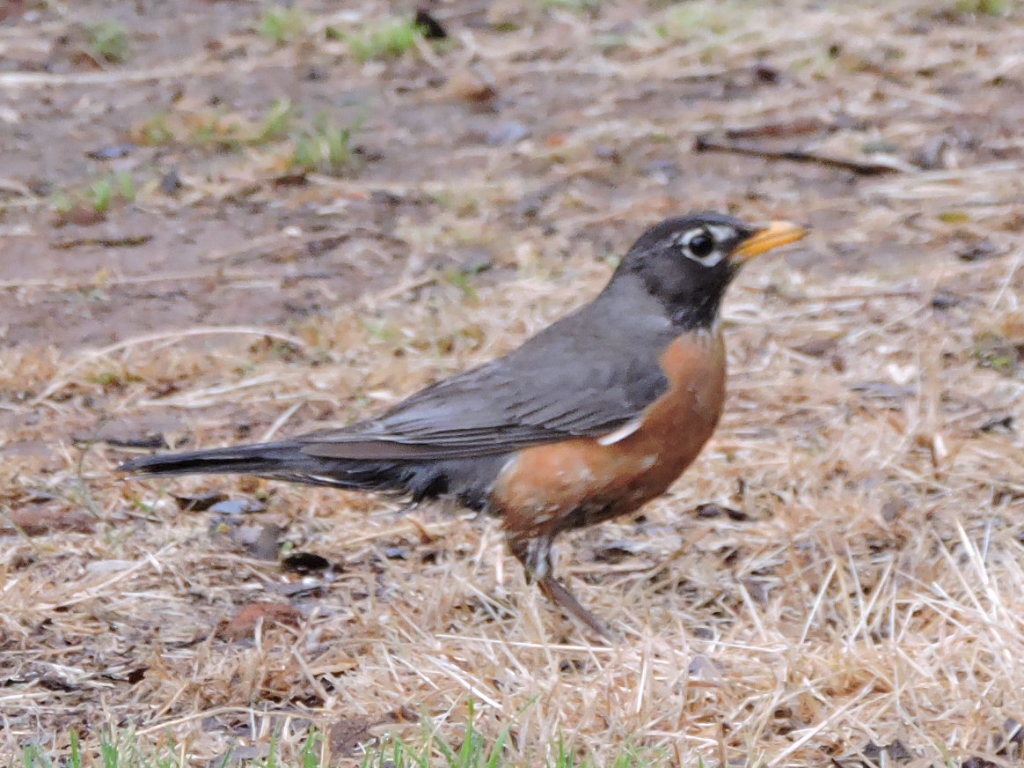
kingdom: Animalia
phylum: Chordata
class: Aves
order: Passeriformes
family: Turdidae
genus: Turdus
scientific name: Turdus migratorius
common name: American robin
